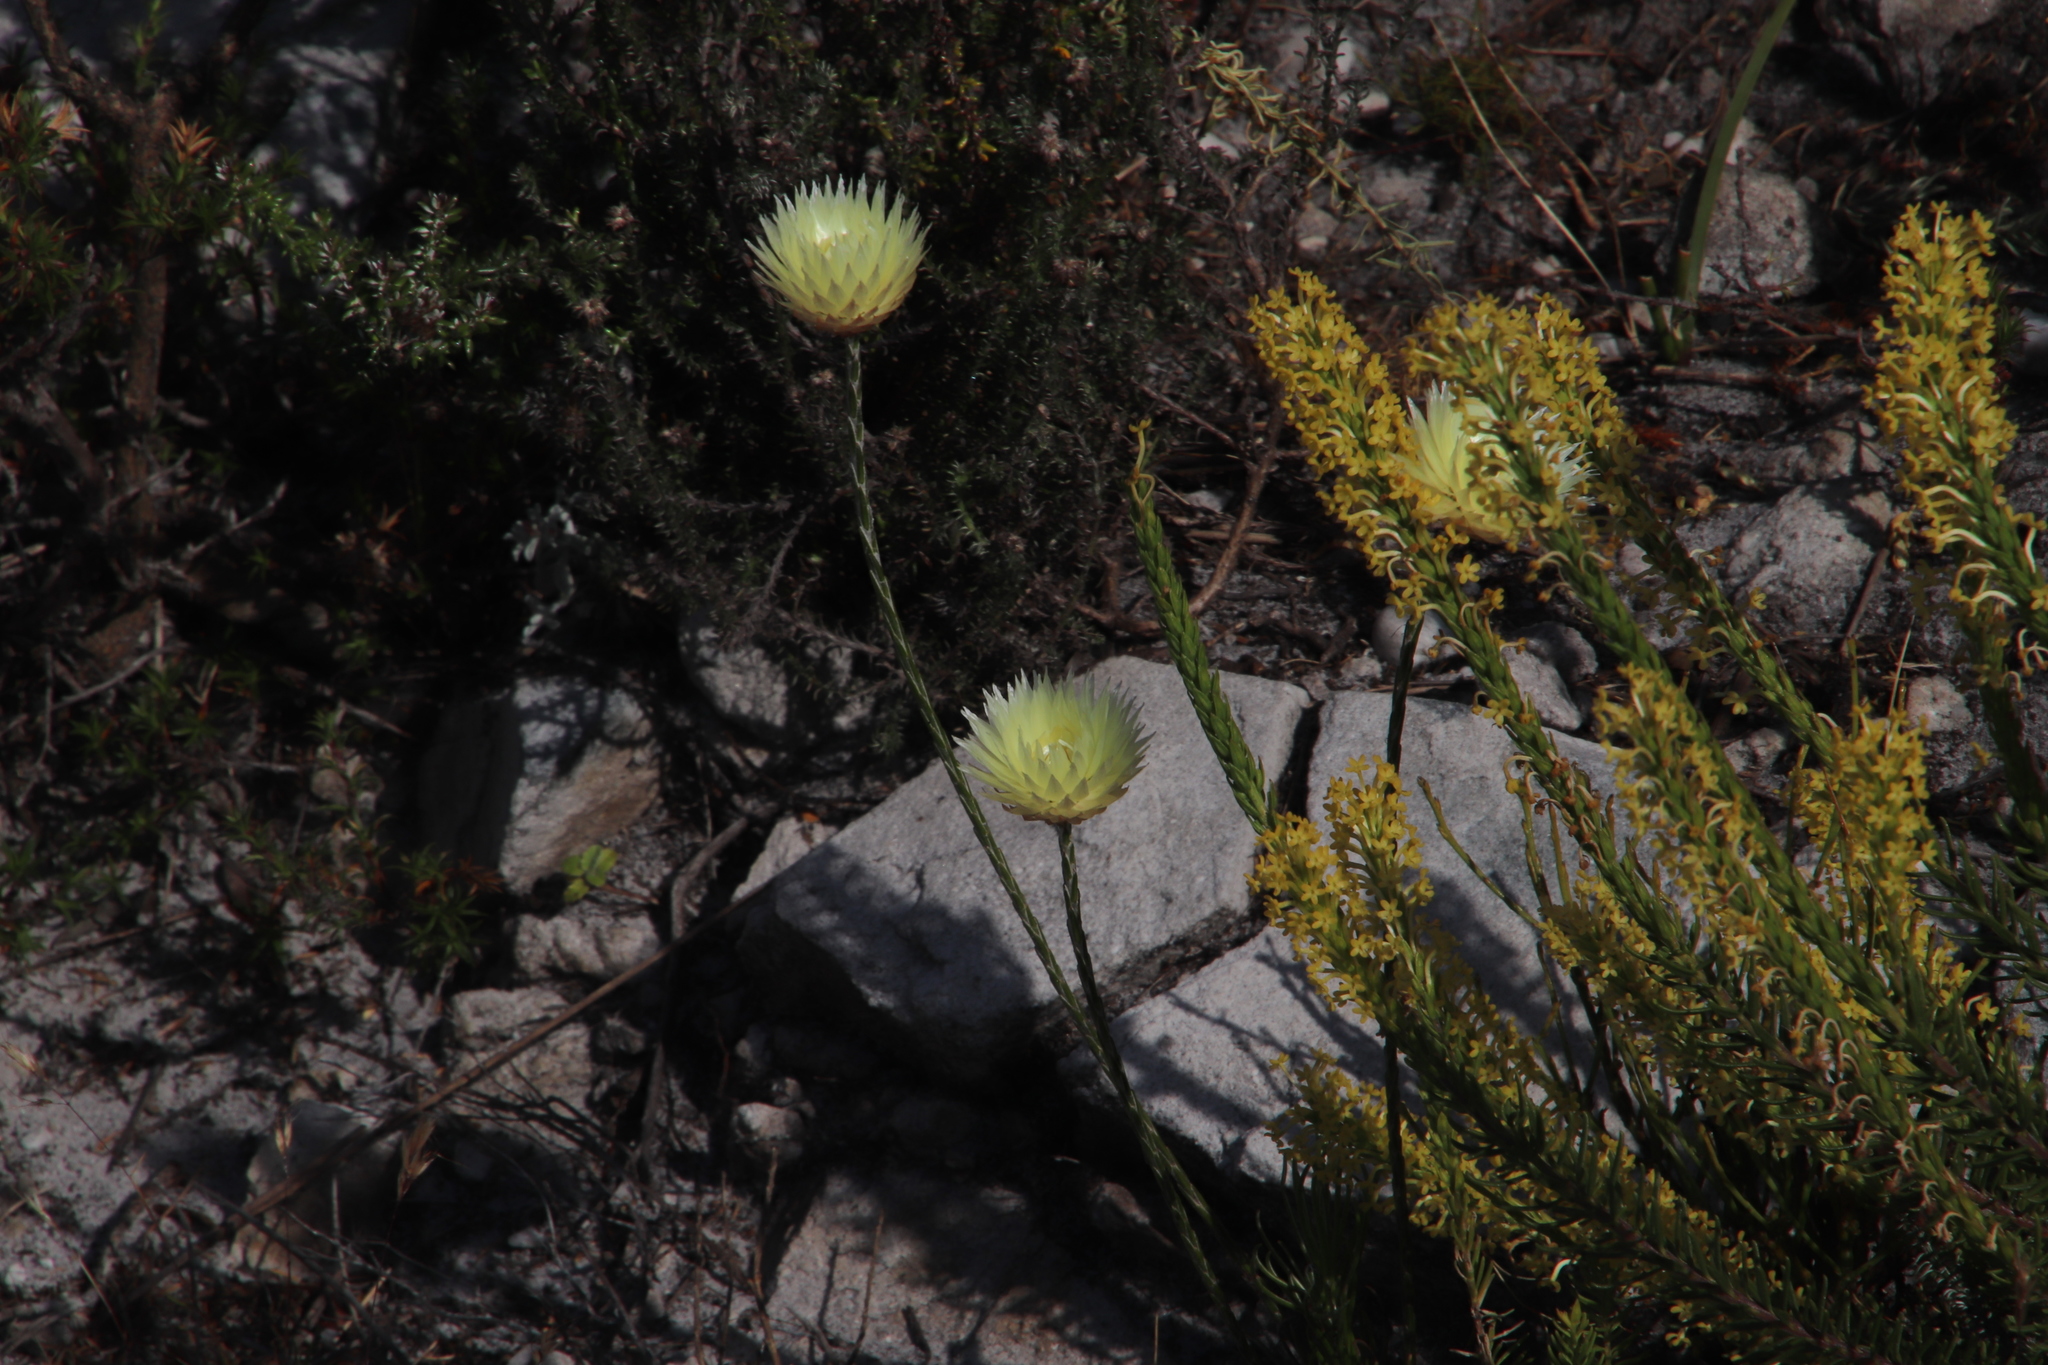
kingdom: Plantae
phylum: Tracheophyta
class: Magnoliopsida
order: Asterales
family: Asteraceae
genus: Edmondia
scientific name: Edmondia sesamoides
